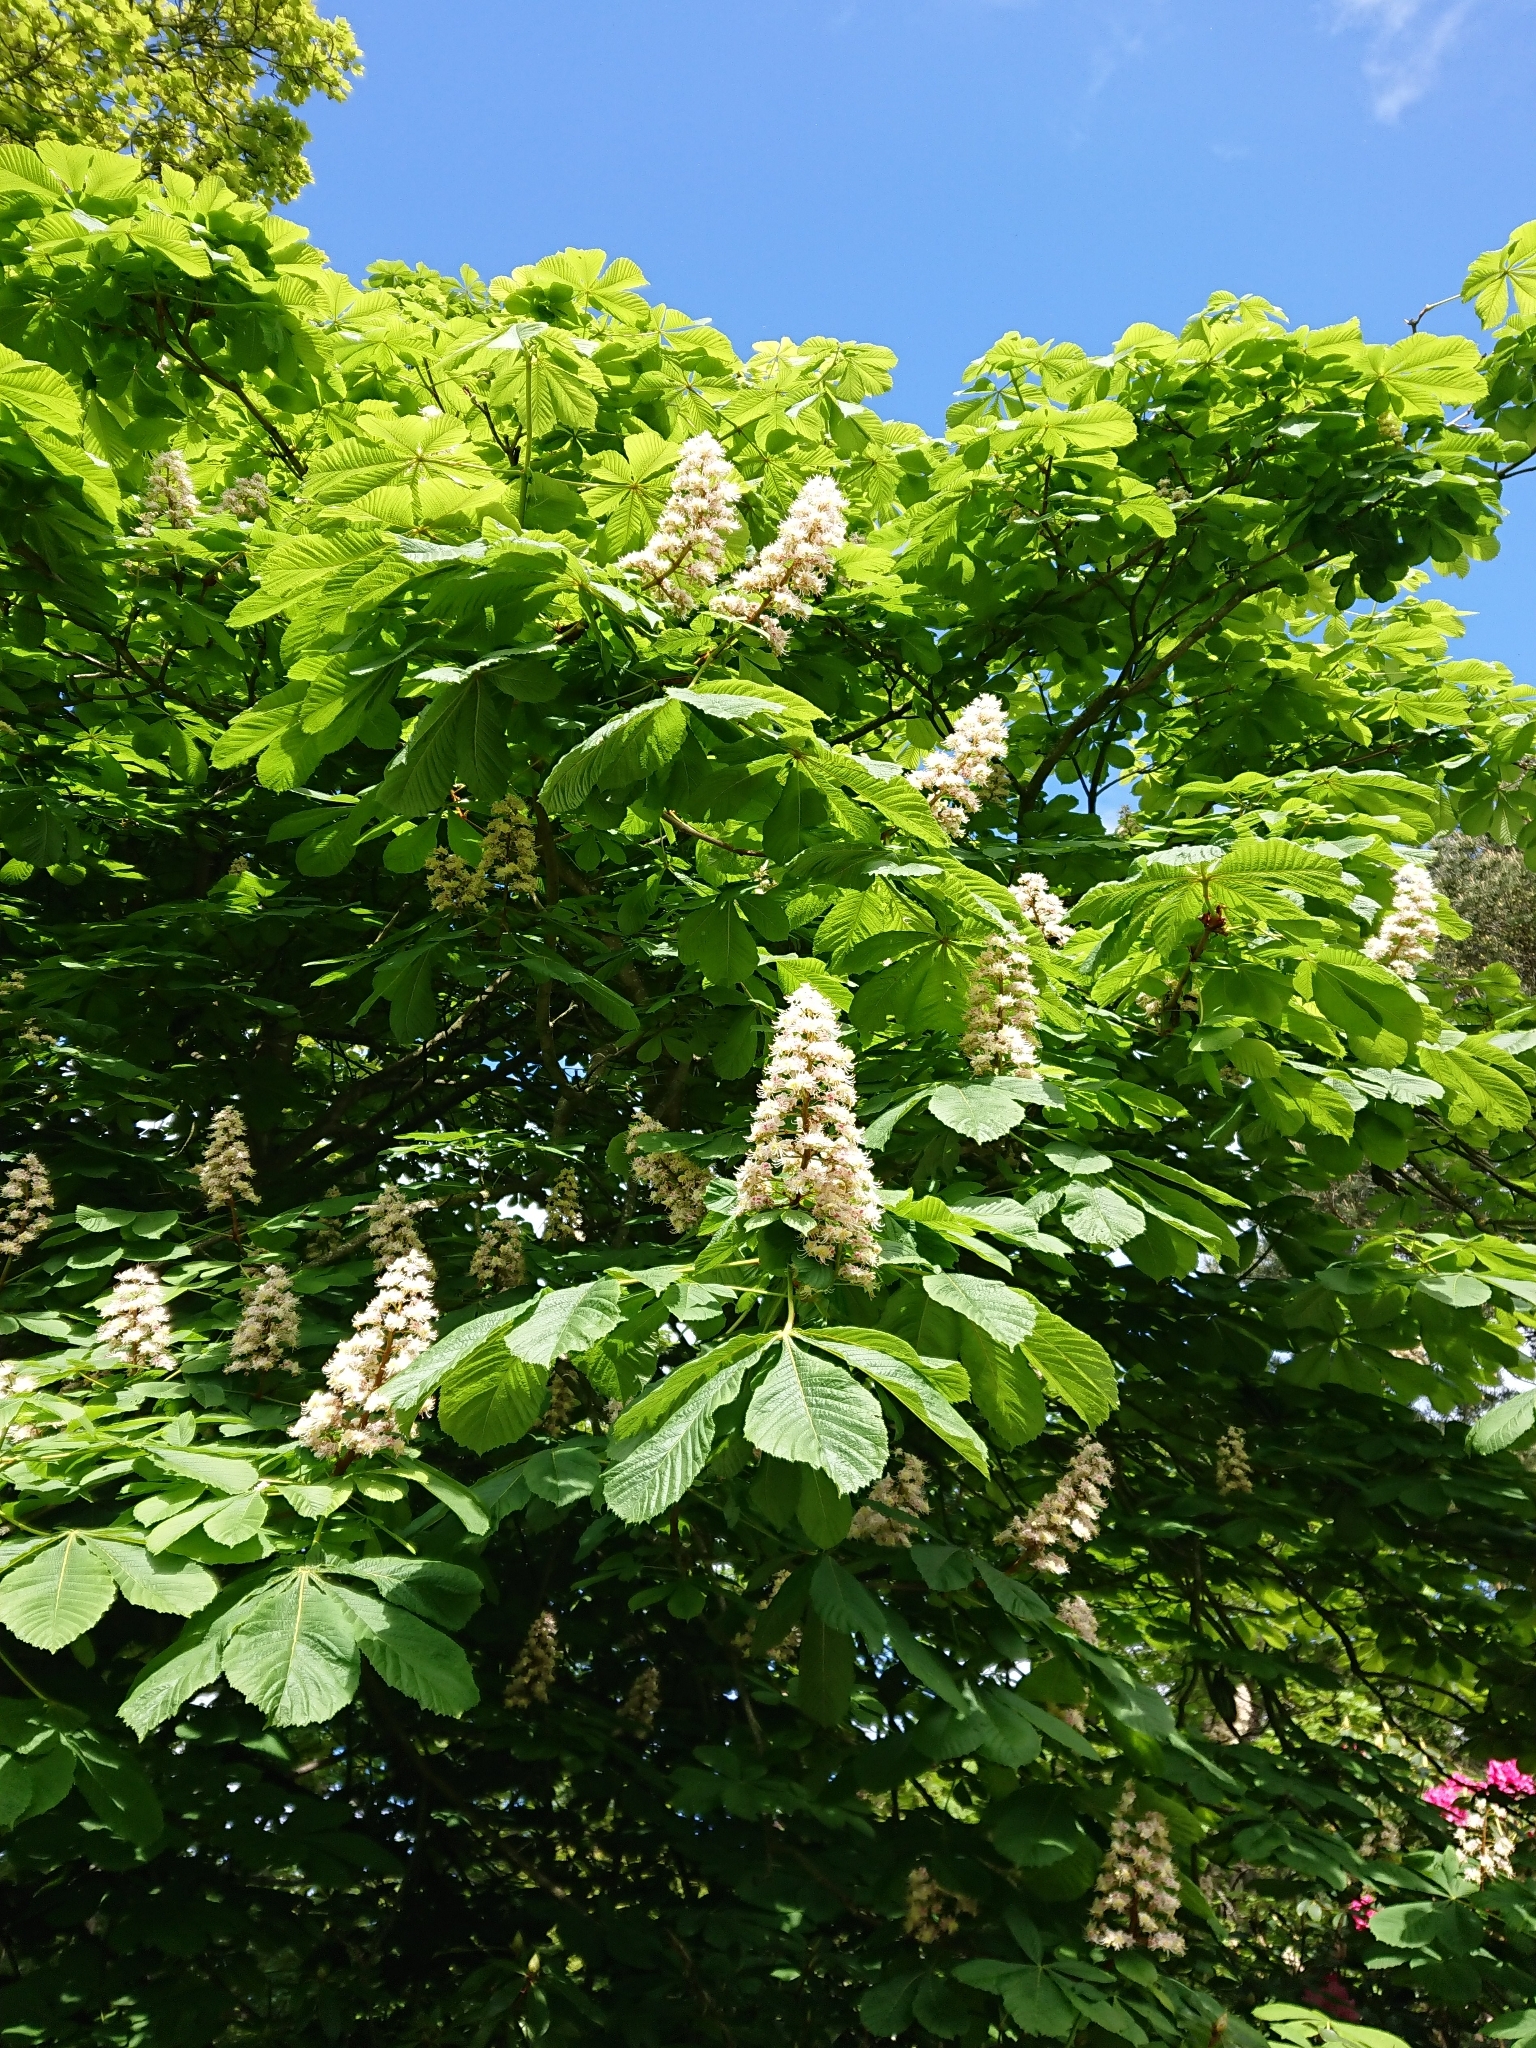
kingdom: Plantae
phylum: Tracheophyta
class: Magnoliopsida
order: Sapindales
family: Sapindaceae
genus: Aesculus
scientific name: Aesculus hippocastanum
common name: Horse-chestnut
